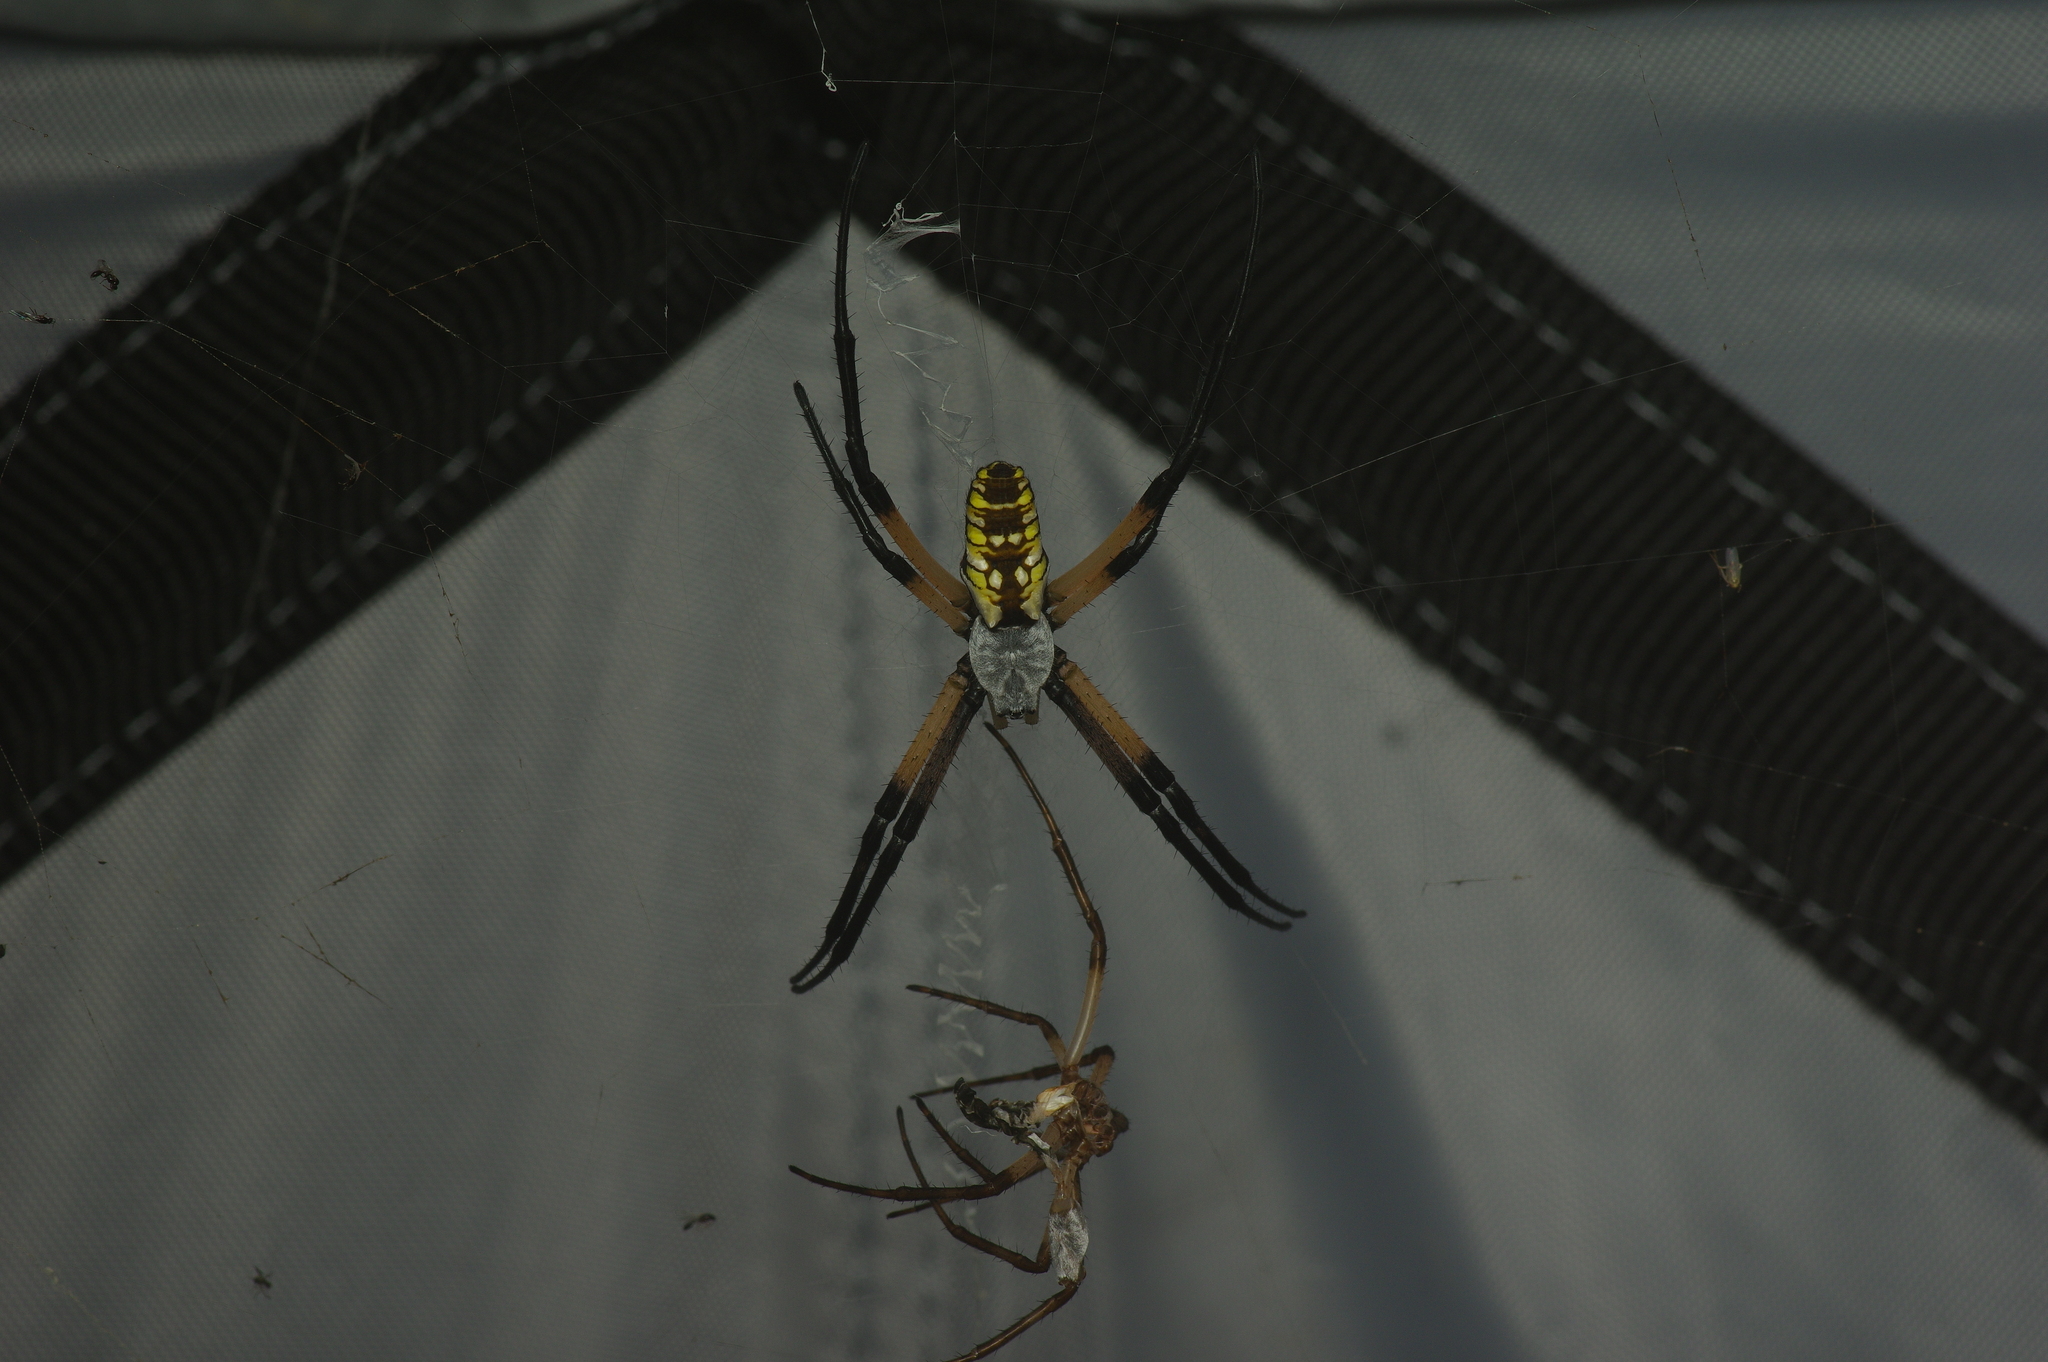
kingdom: Animalia
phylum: Arthropoda
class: Arachnida
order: Araneae
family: Araneidae
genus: Argiope
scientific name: Argiope aurantia
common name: Orb weavers
